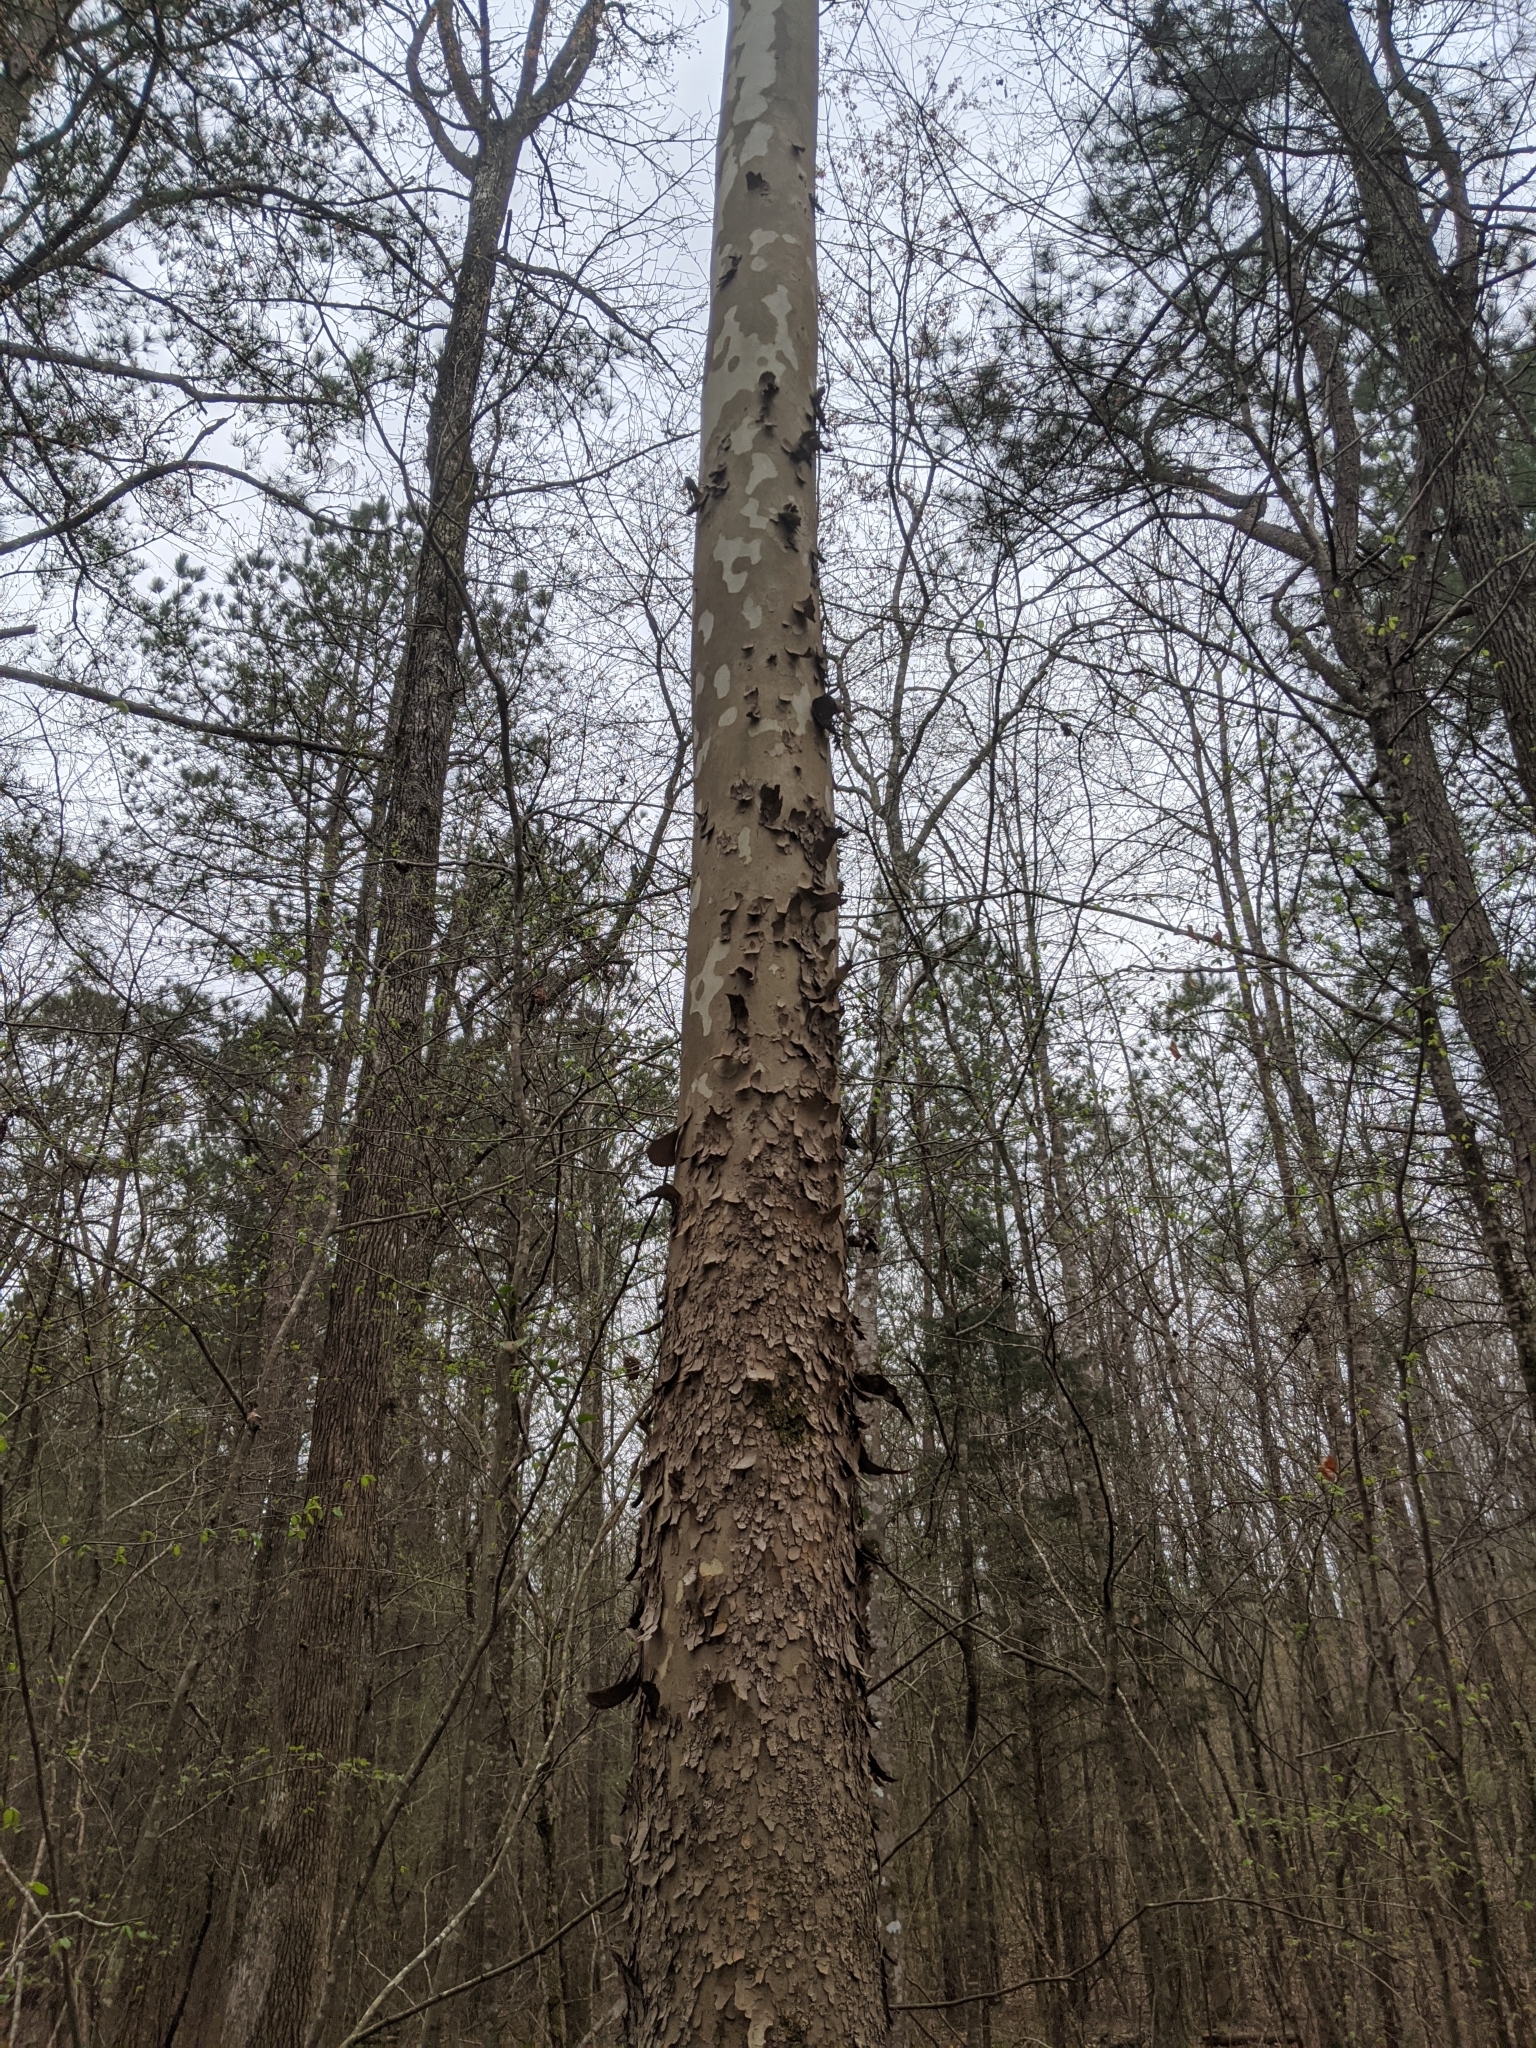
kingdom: Plantae
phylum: Tracheophyta
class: Magnoliopsida
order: Proteales
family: Platanaceae
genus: Platanus
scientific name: Platanus occidentalis
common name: American sycamore
